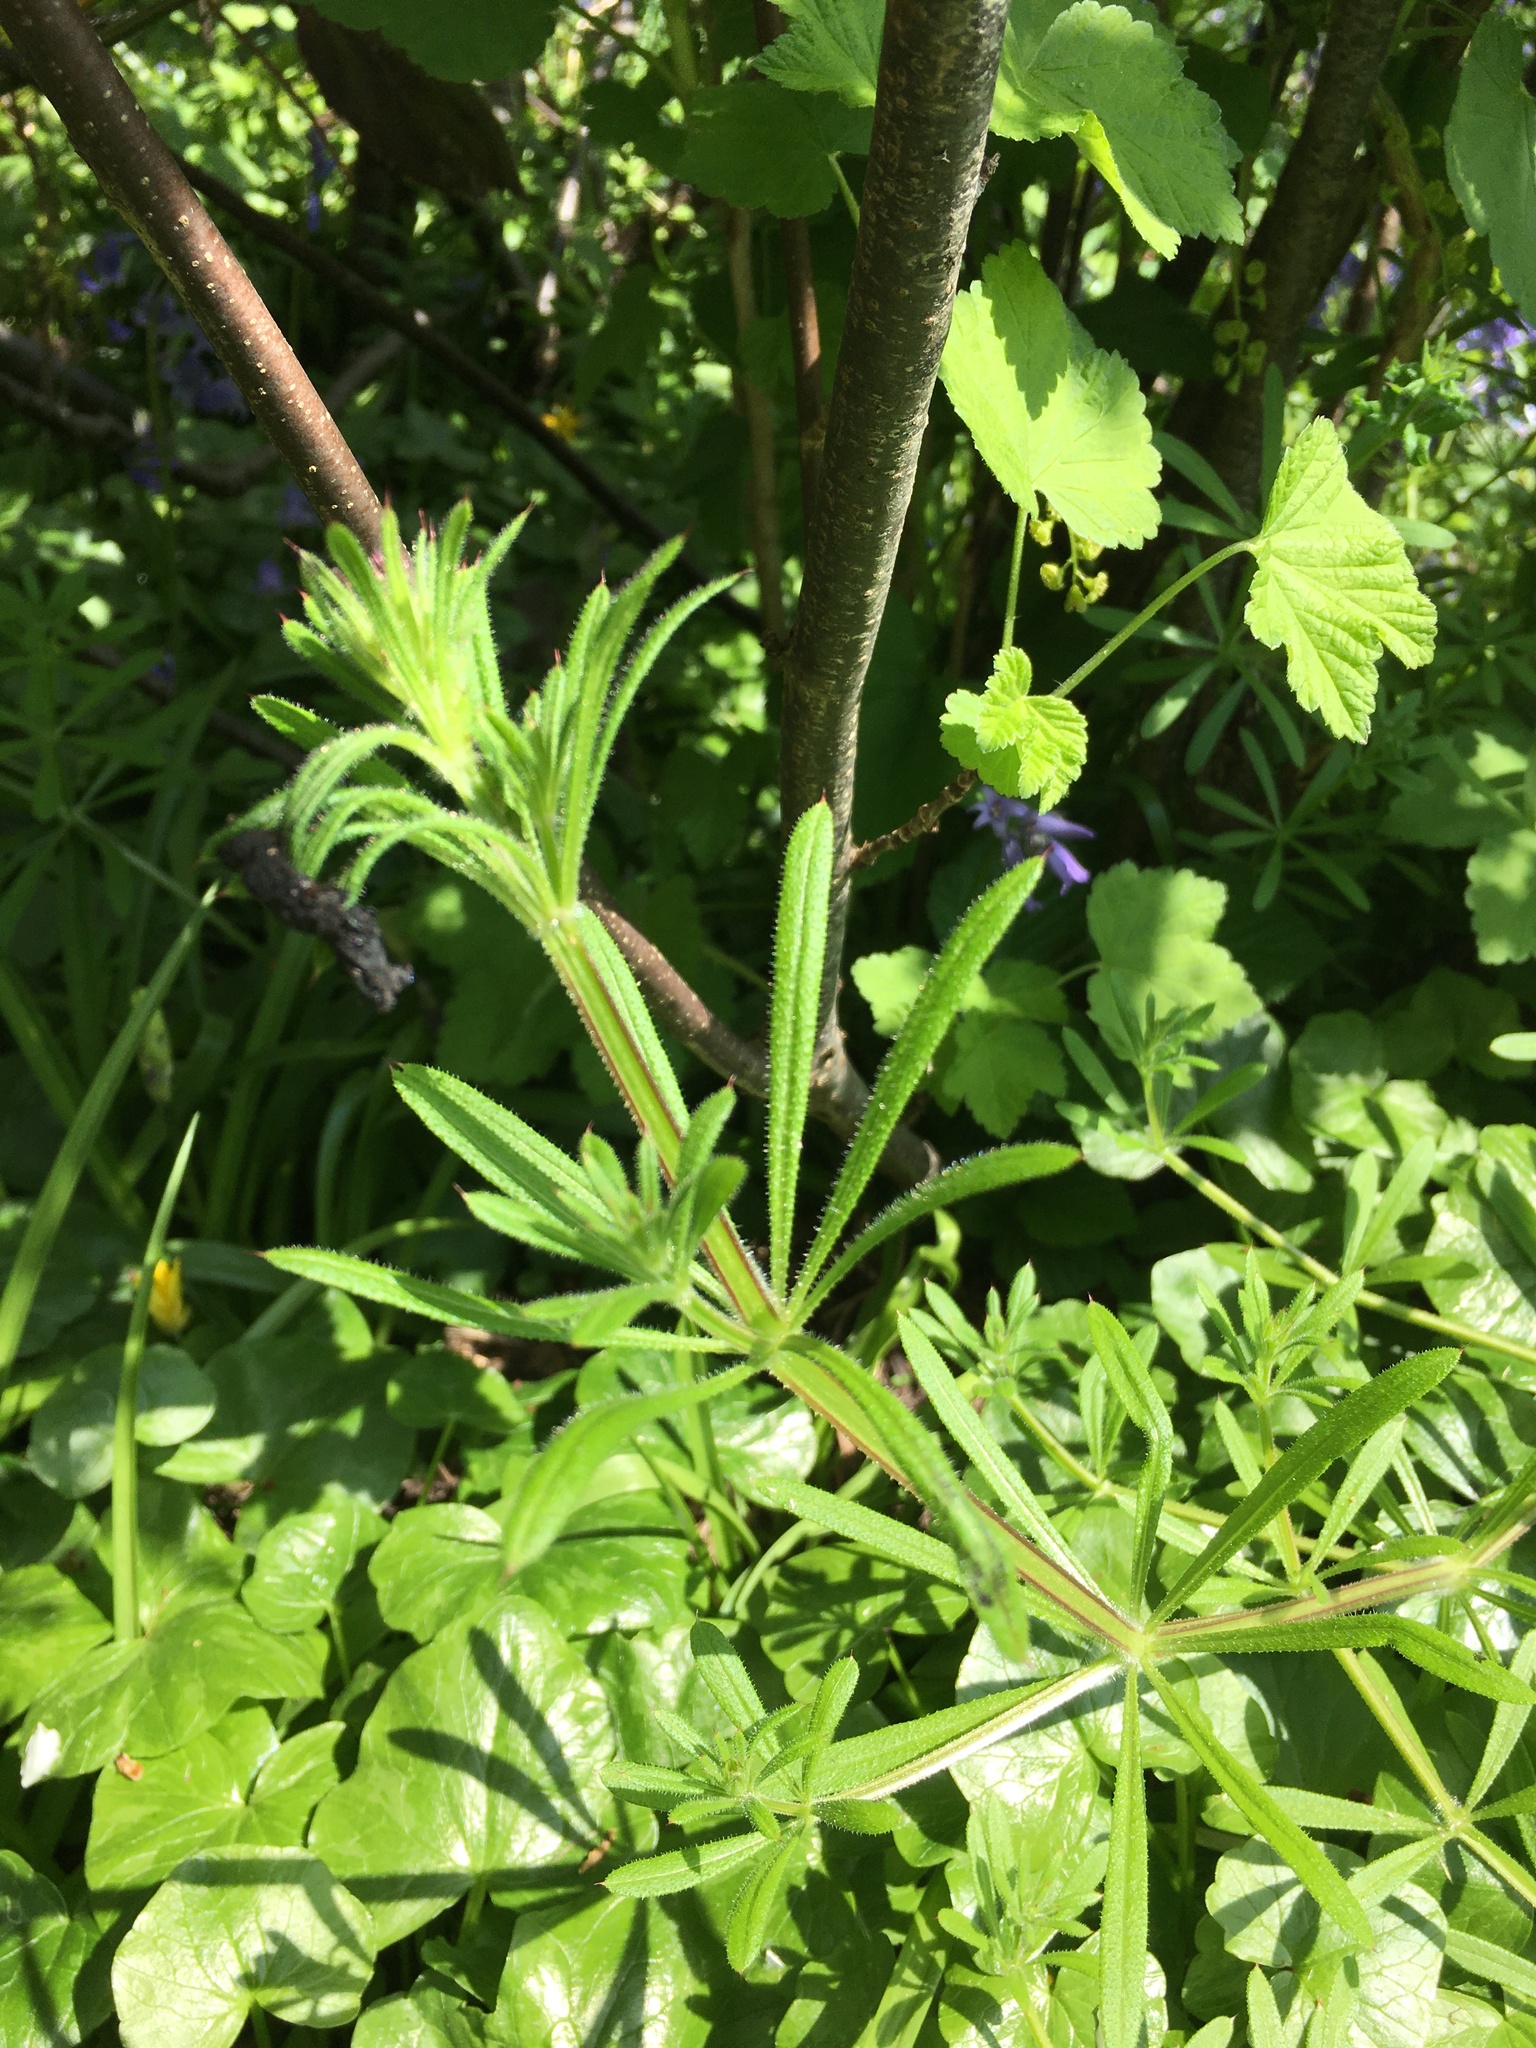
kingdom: Plantae
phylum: Tracheophyta
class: Magnoliopsida
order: Gentianales
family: Rubiaceae
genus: Galium
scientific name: Galium aparine
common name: Cleavers
